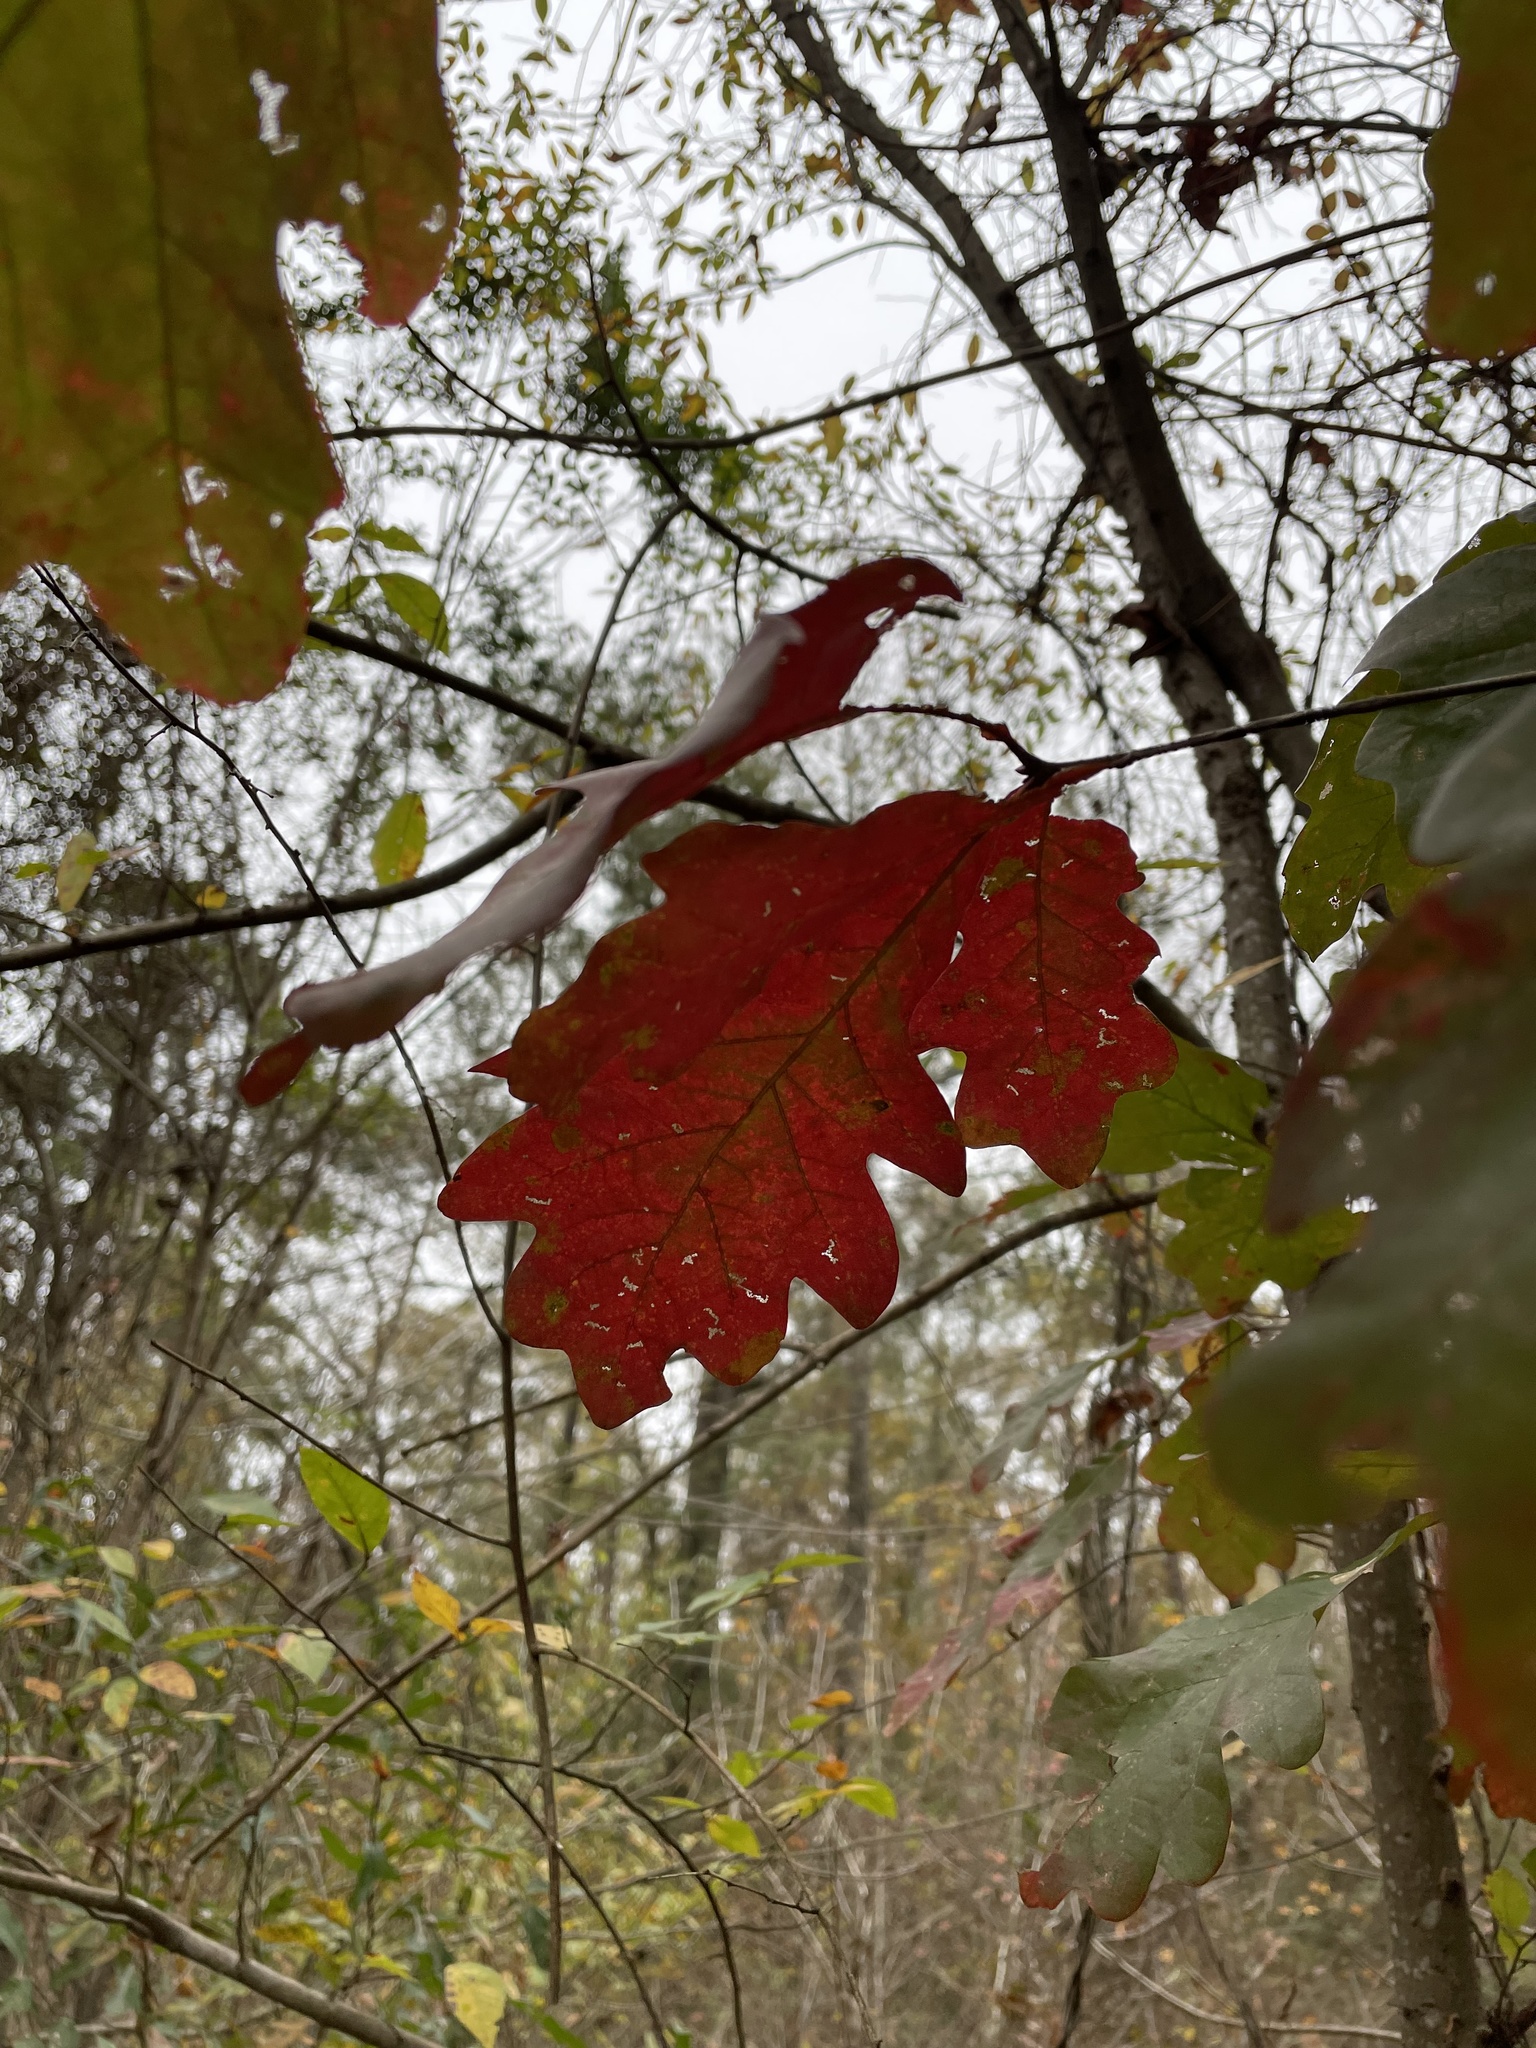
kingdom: Plantae
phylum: Tracheophyta
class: Magnoliopsida
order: Fagales
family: Fagaceae
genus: Quercus
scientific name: Quercus alba
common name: White oak
